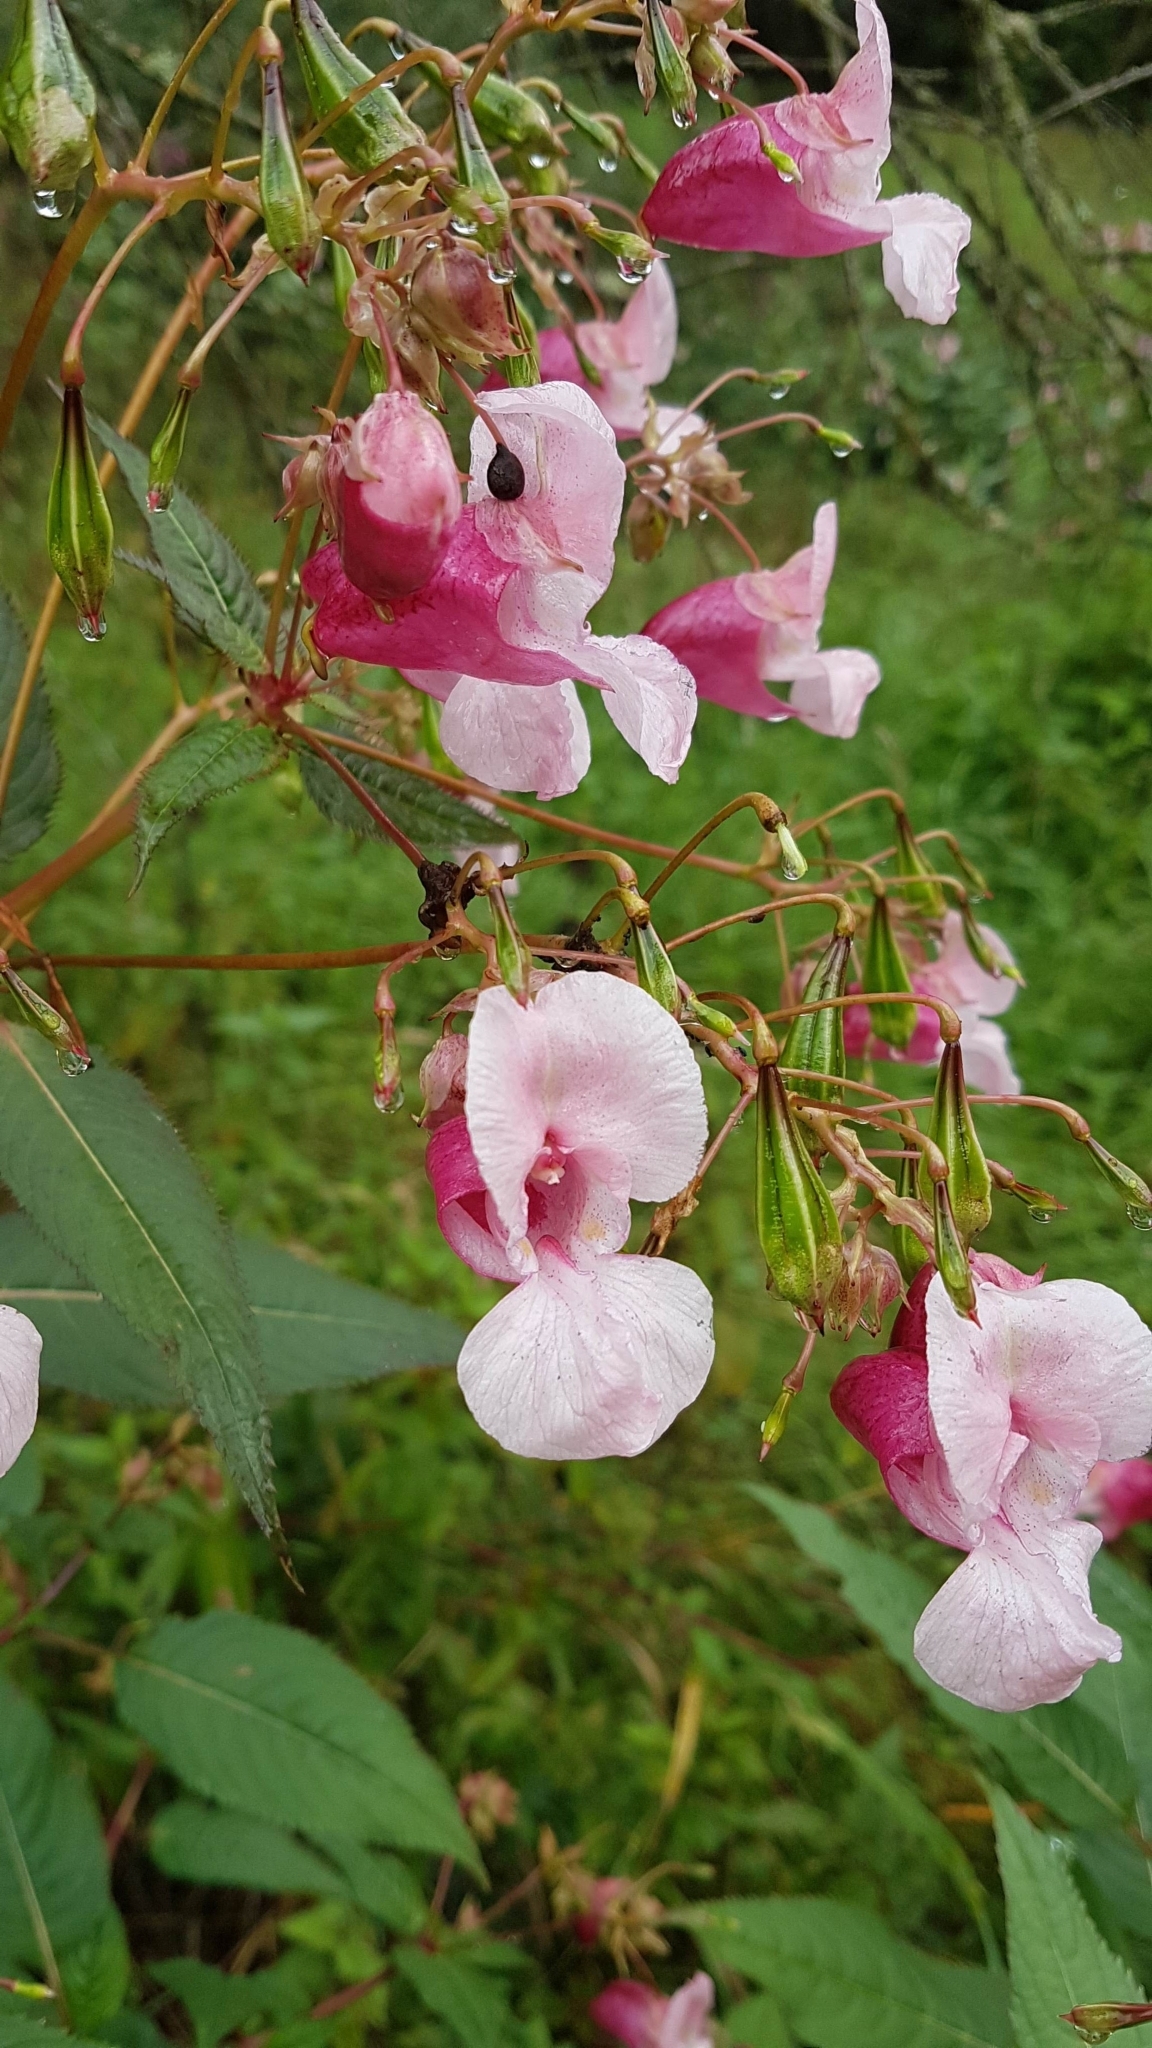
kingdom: Plantae
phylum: Tracheophyta
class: Magnoliopsida
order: Ericales
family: Balsaminaceae
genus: Impatiens
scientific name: Impatiens glandulifera
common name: Himalayan balsam
